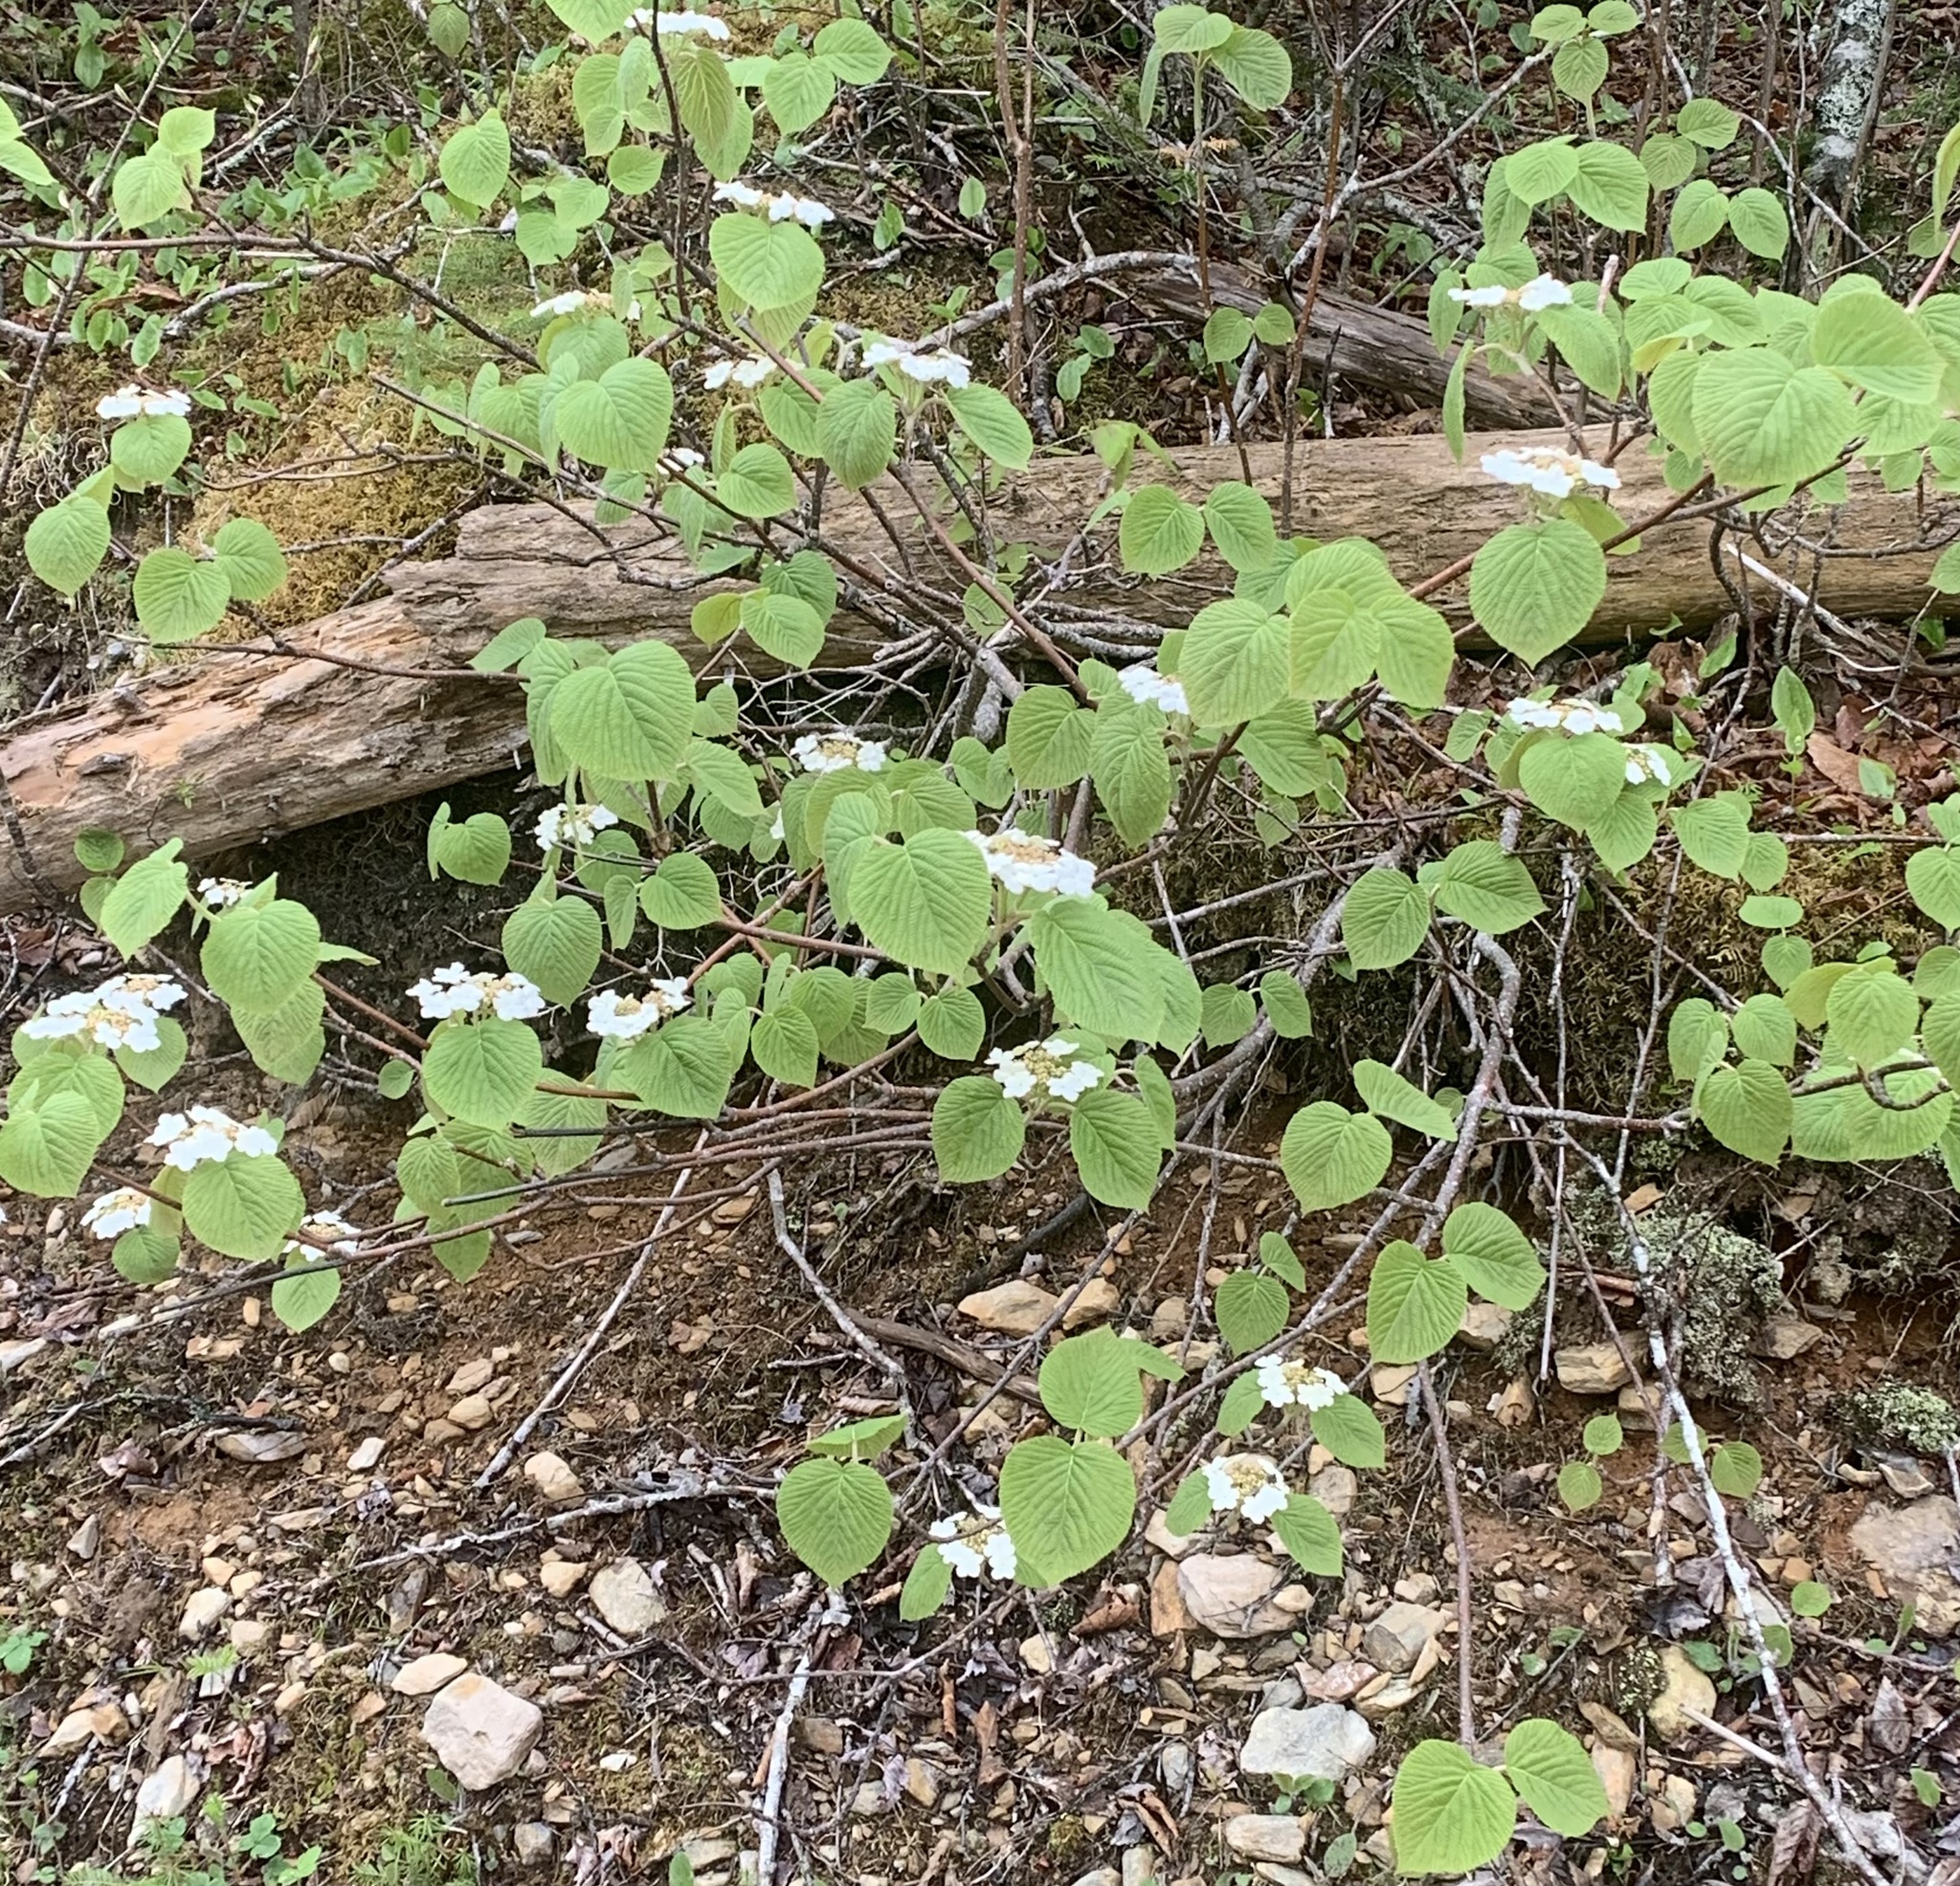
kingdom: Plantae
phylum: Tracheophyta
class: Magnoliopsida
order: Dipsacales
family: Viburnaceae
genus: Viburnum
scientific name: Viburnum lantanoides
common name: Hobblebush
